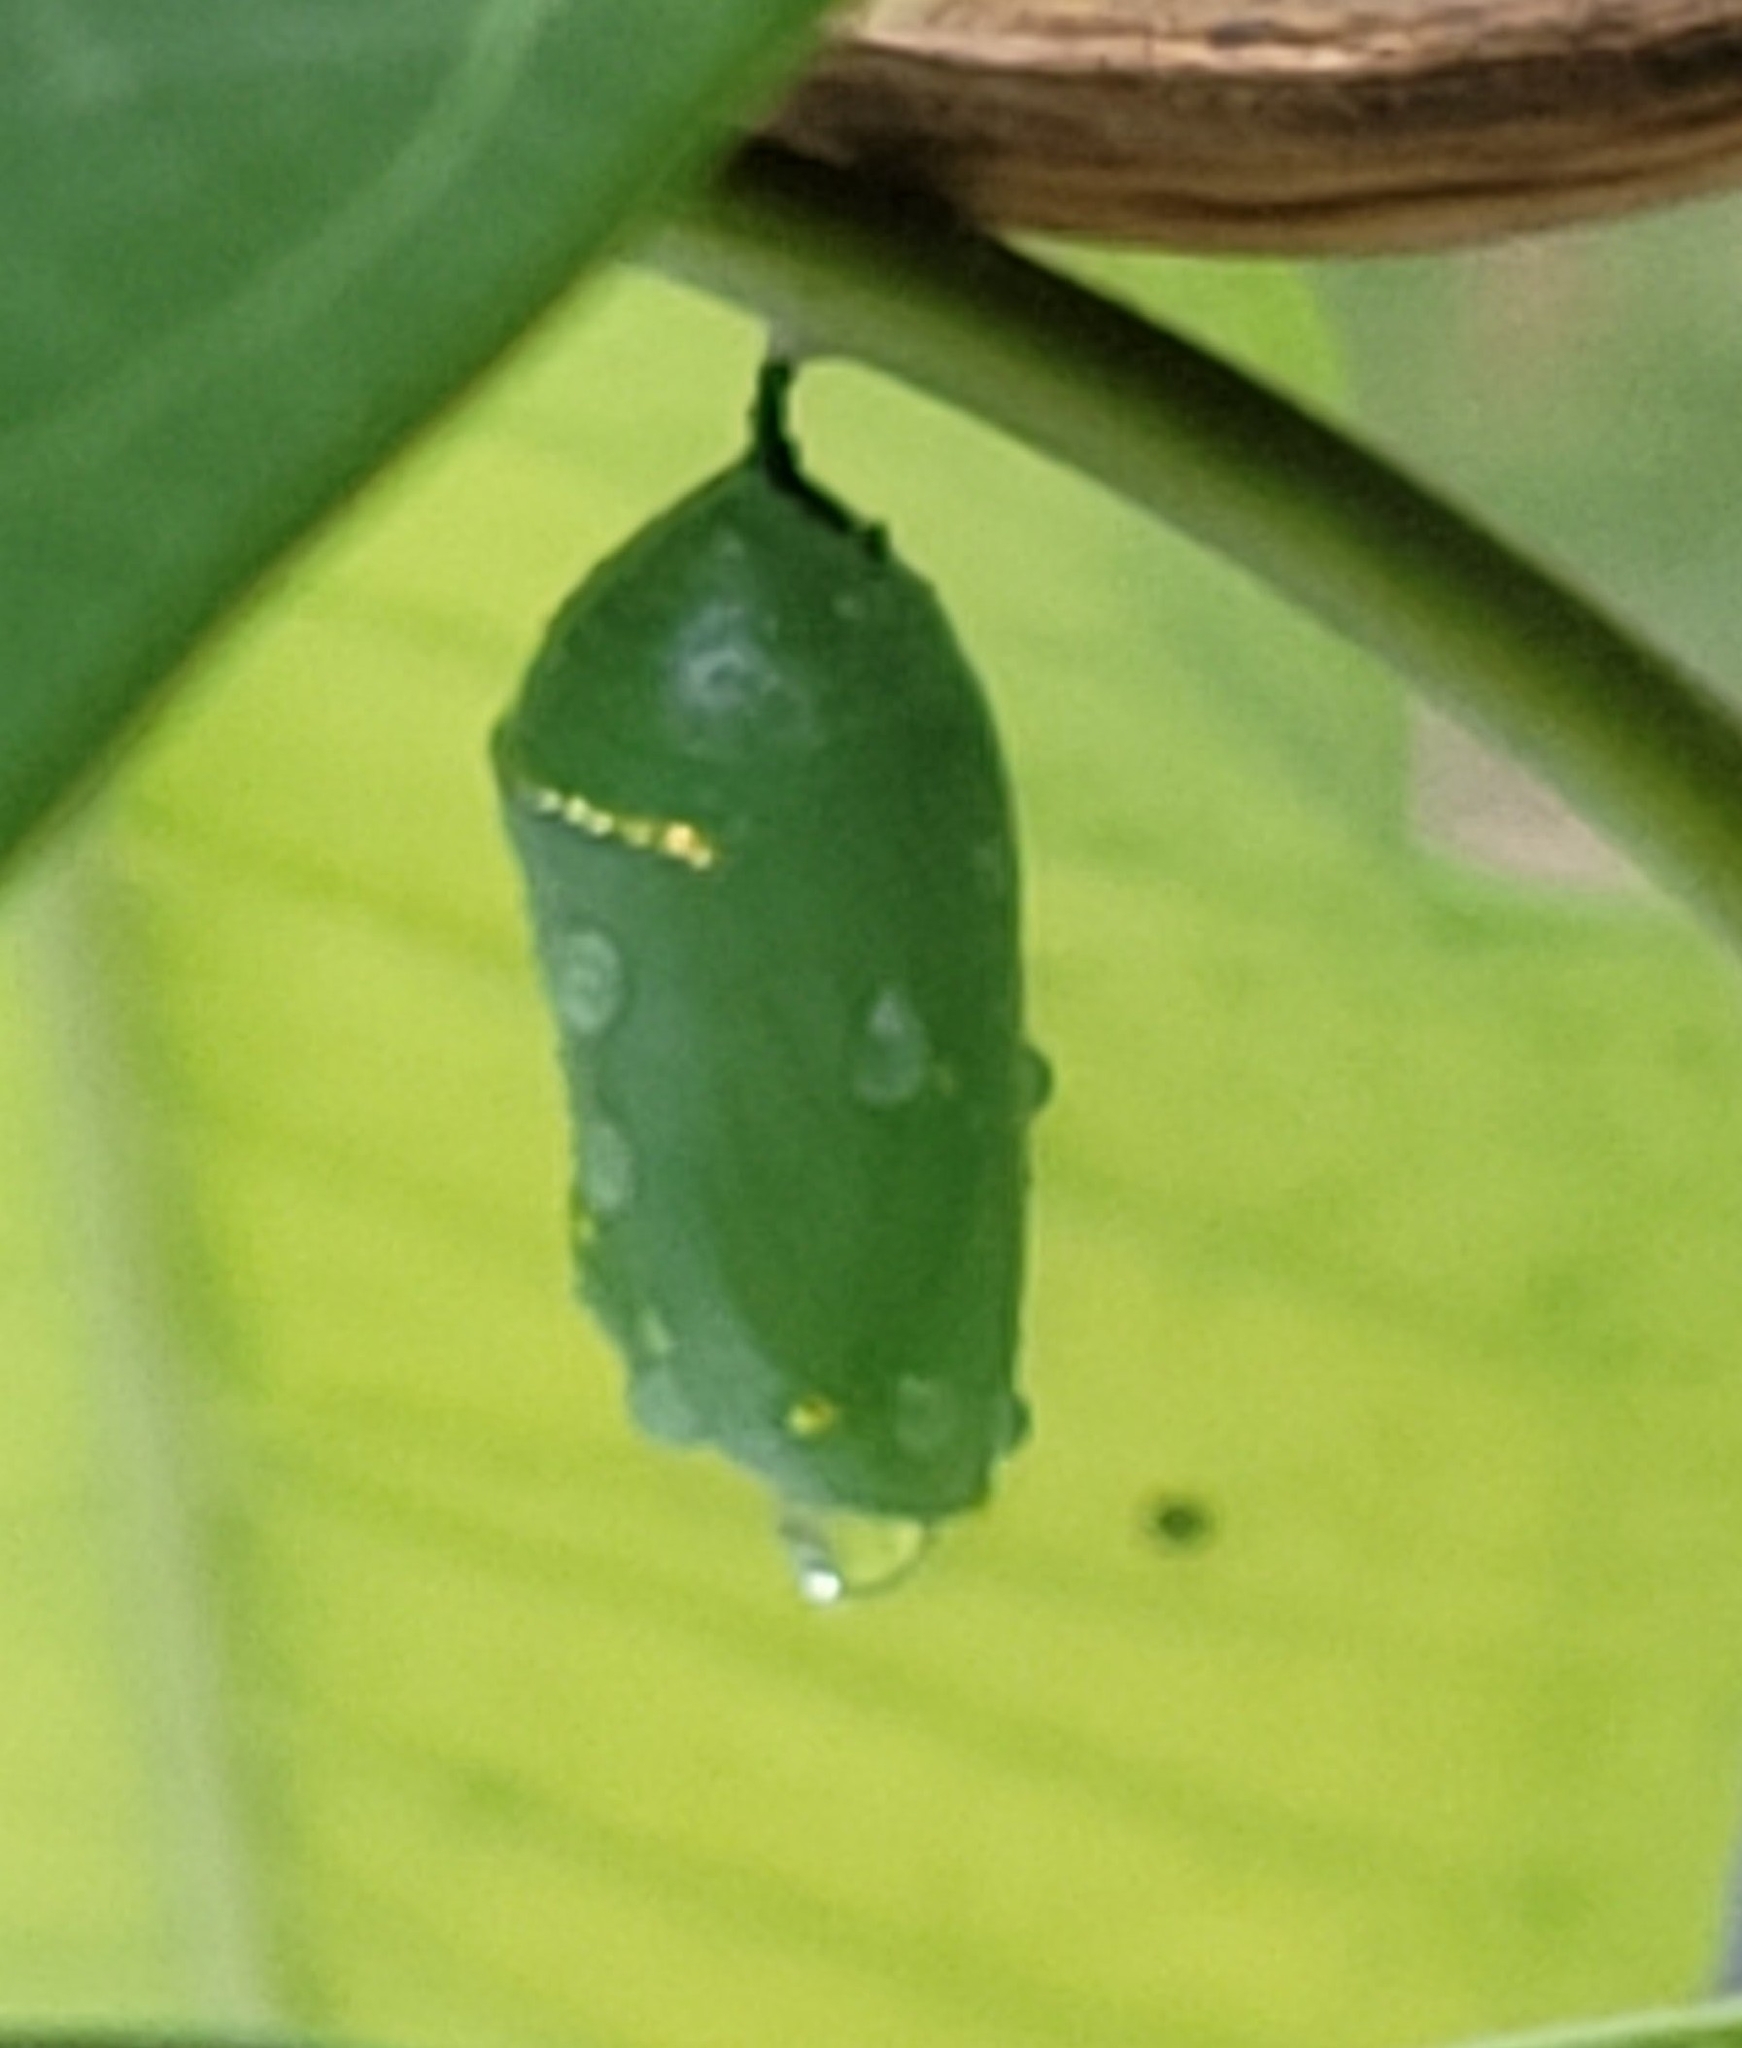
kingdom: Animalia
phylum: Arthropoda
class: Insecta
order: Lepidoptera
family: Nymphalidae
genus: Danaus
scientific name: Danaus plexippus
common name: Monarch
